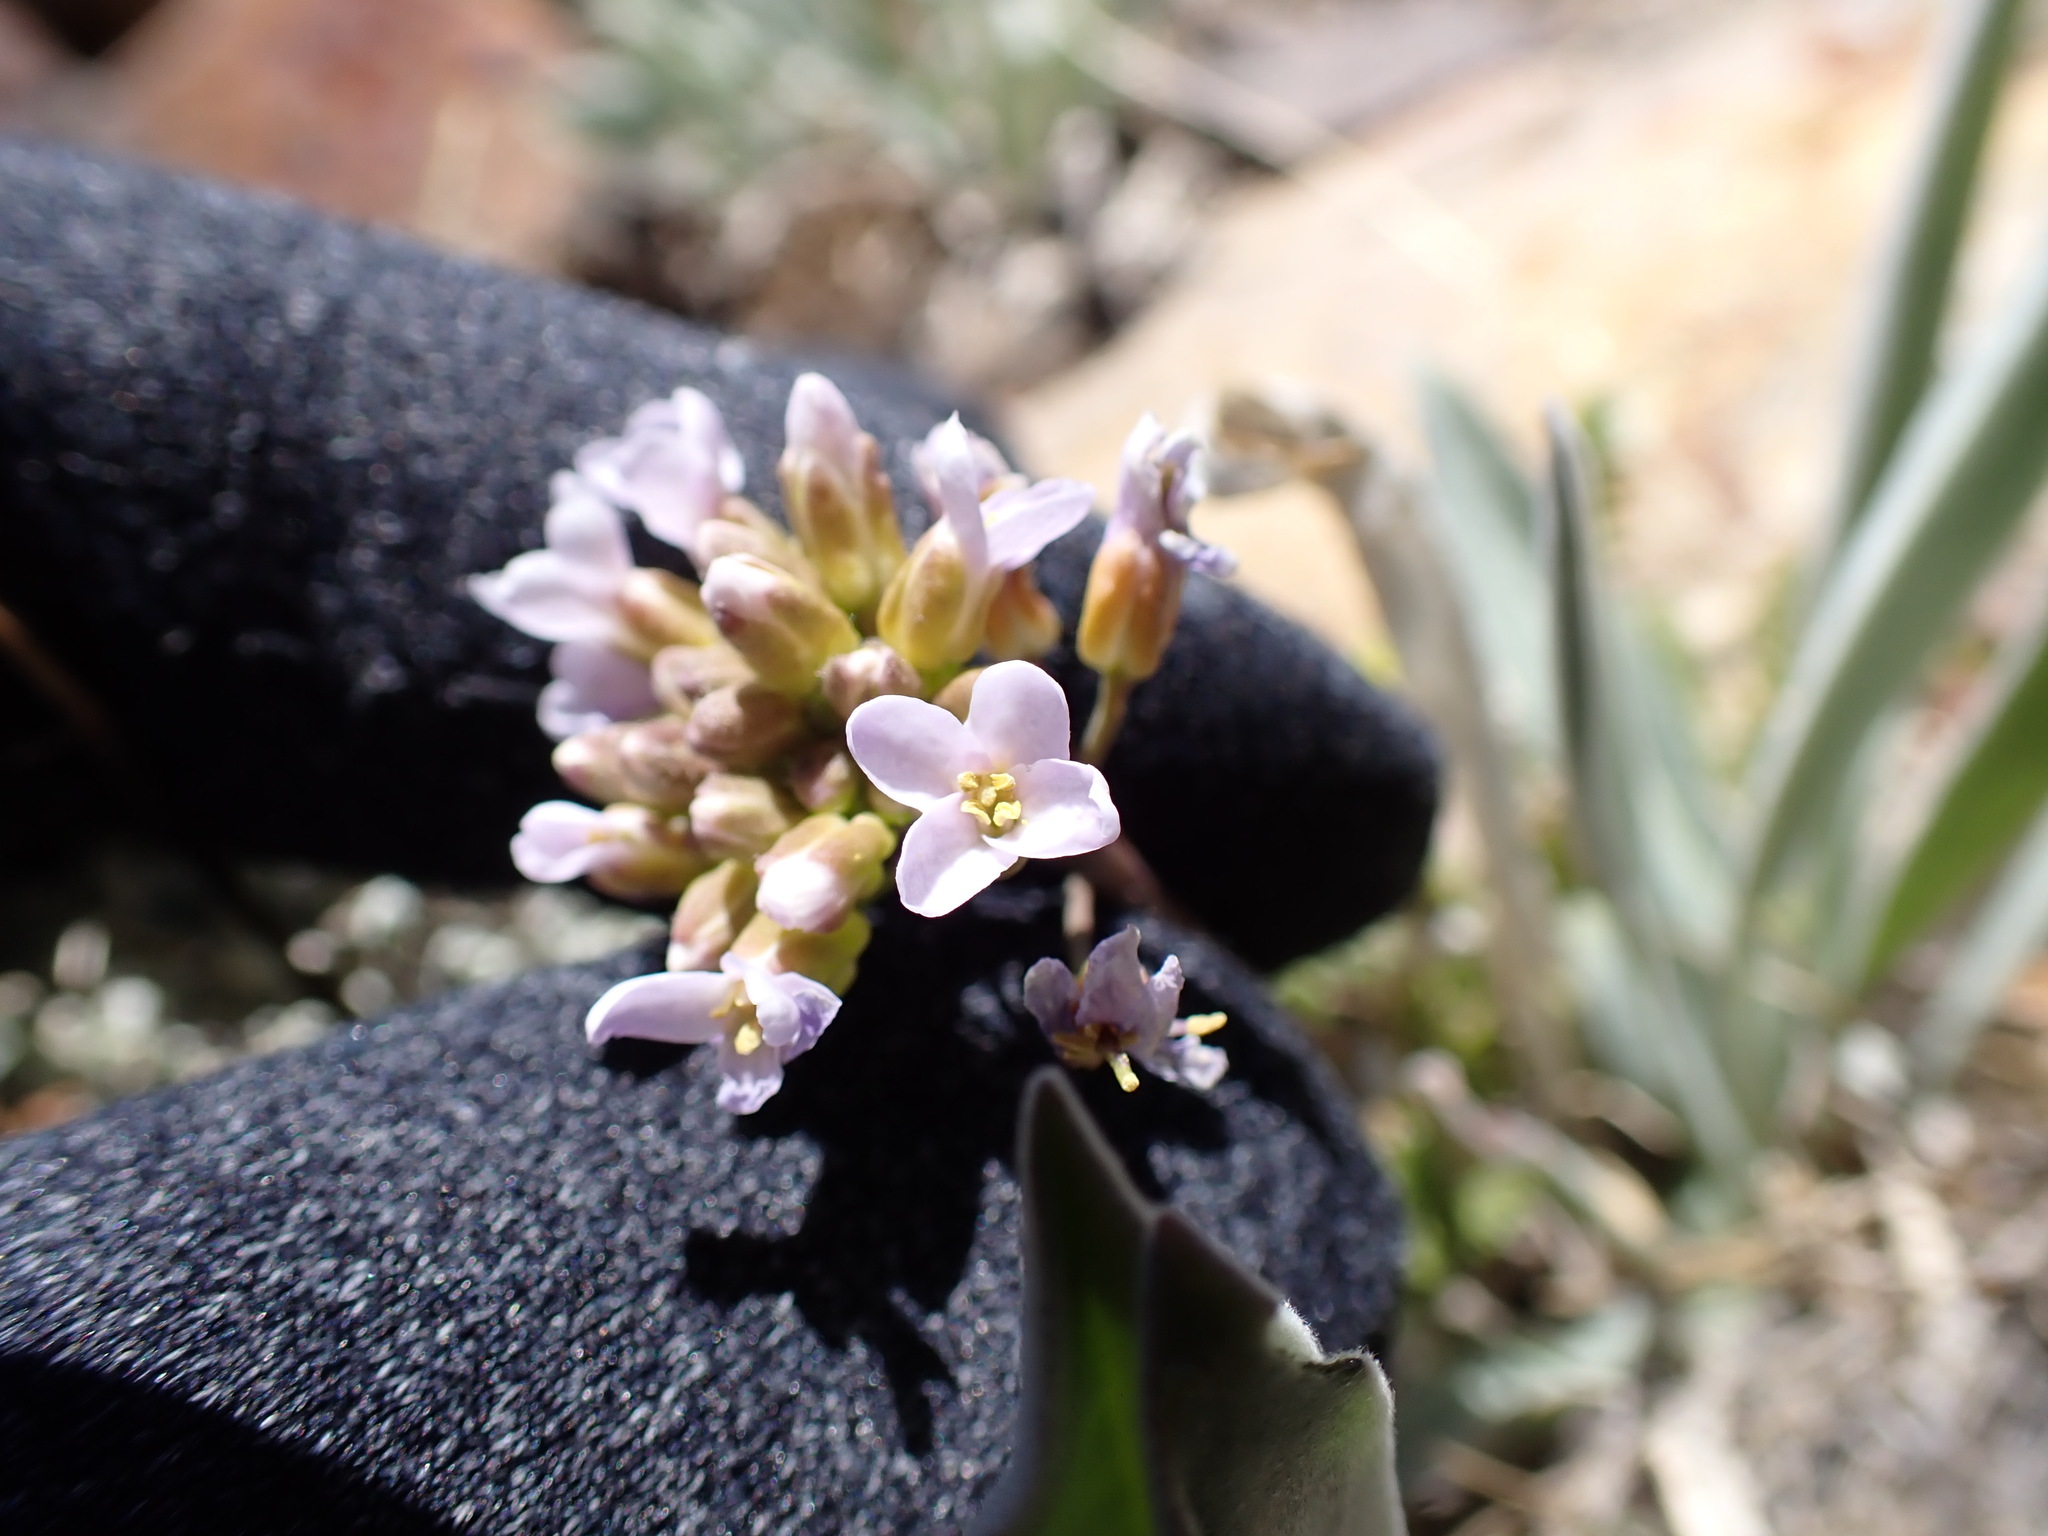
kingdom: Plantae
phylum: Tracheophyta
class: Magnoliopsida
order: Brassicales
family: Brassicaceae
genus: Phoenicaulis
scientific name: Phoenicaulis cheiranthoides
